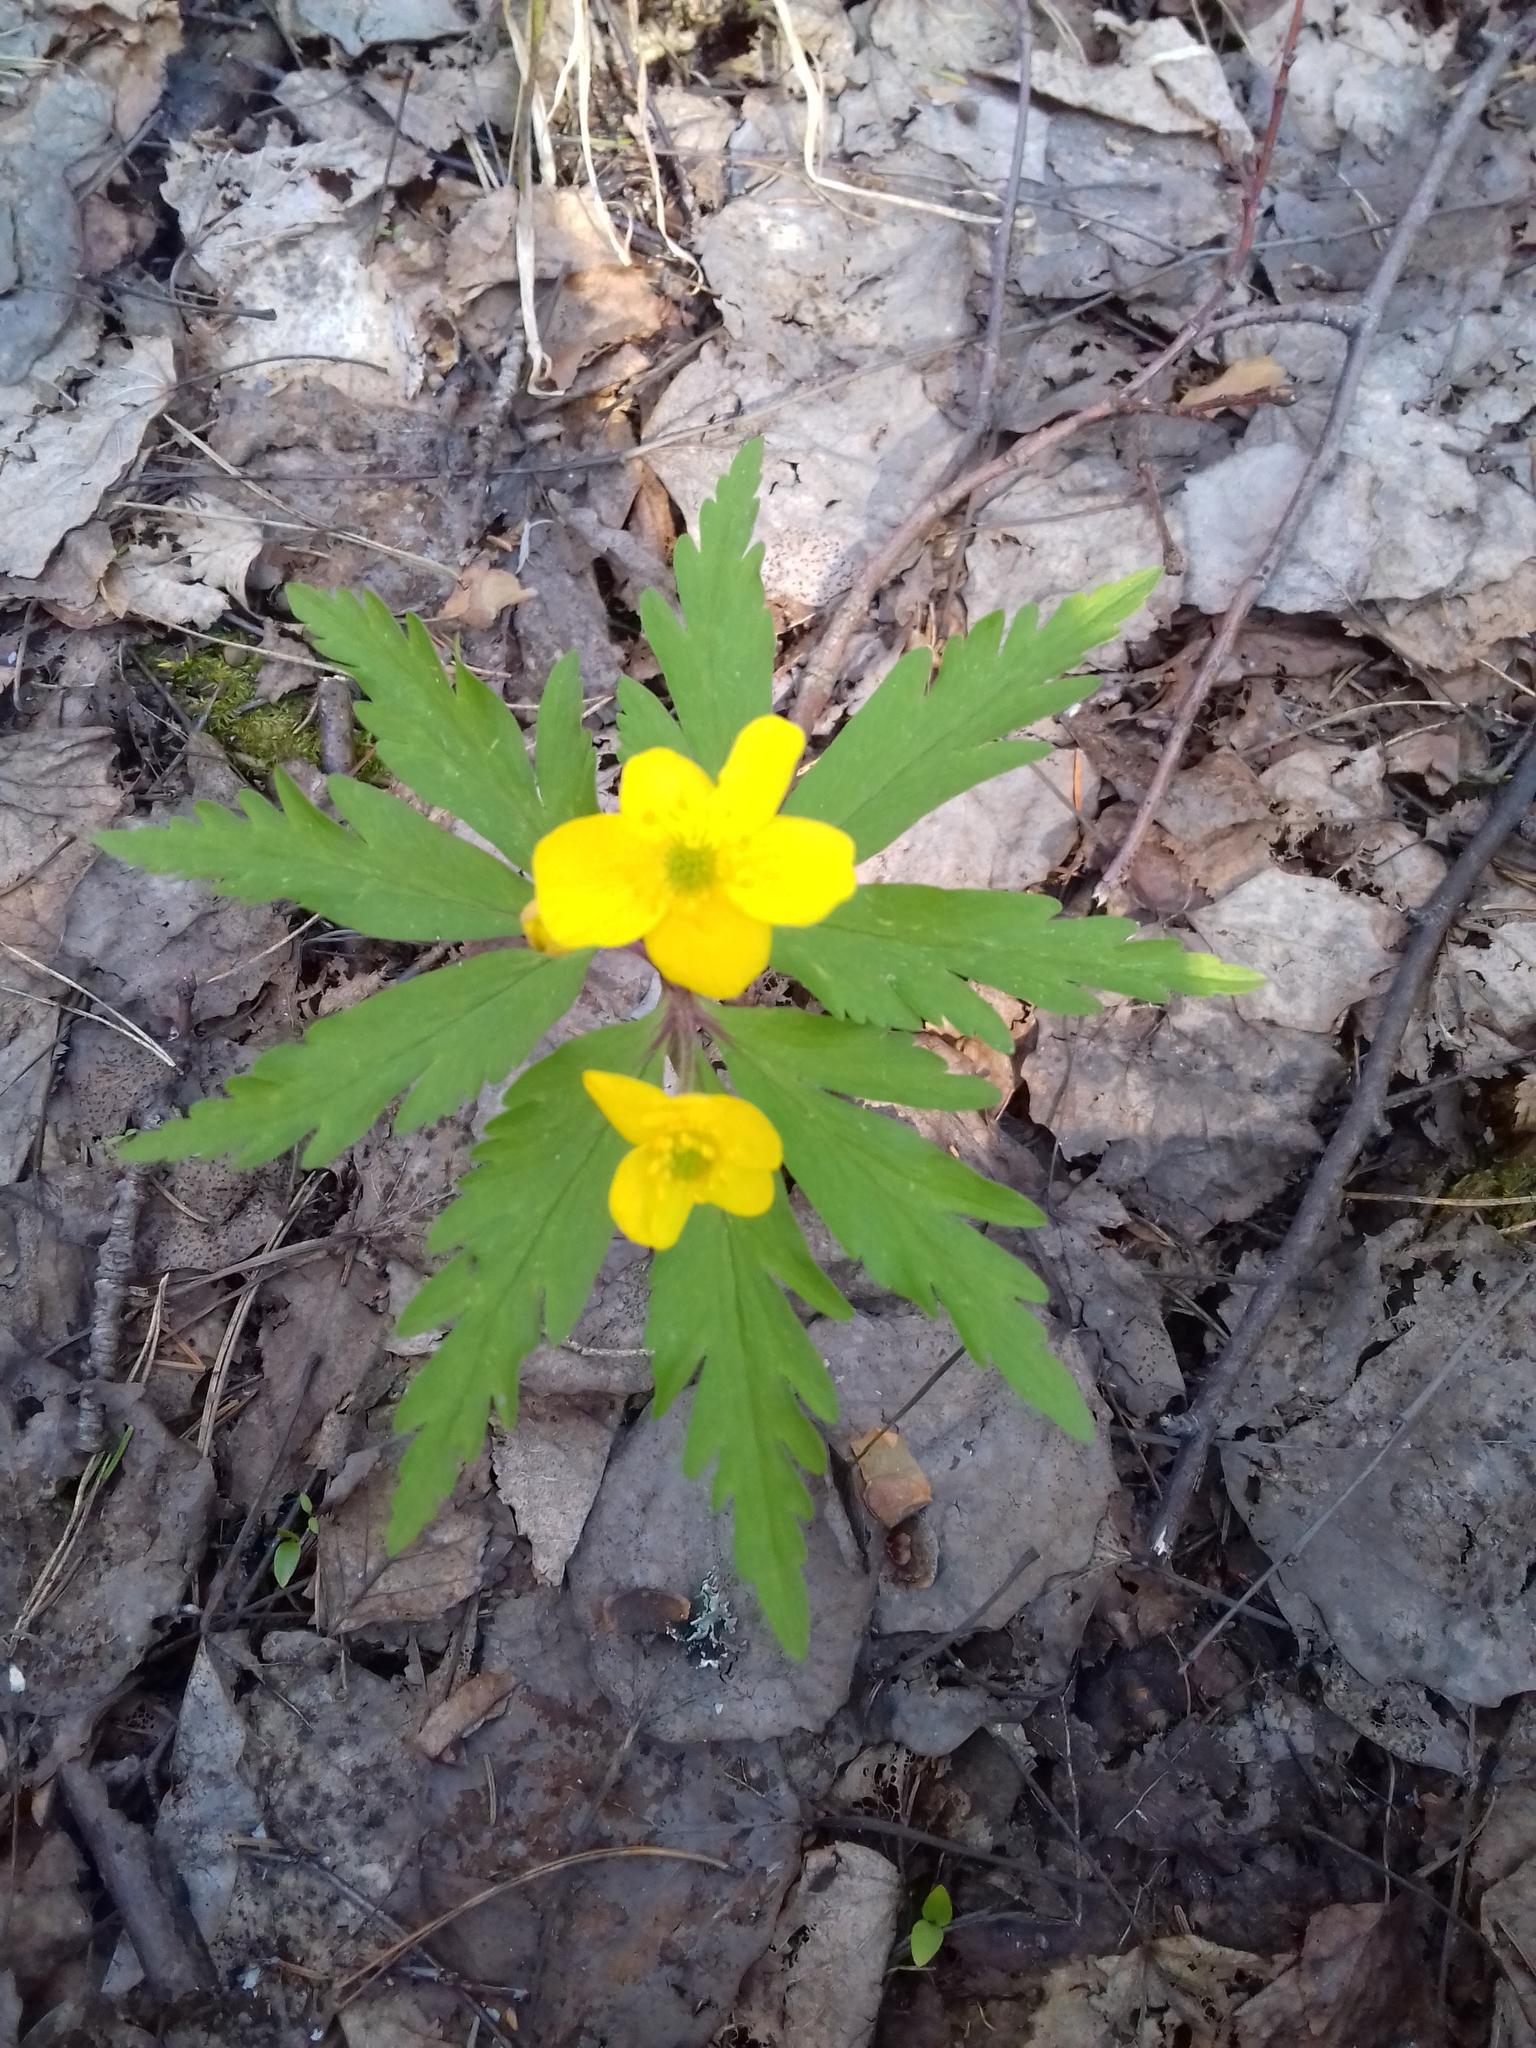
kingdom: Plantae
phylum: Tracheophyta
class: Magnoliopsida
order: Ranunculales
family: Ranunculaceae
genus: Anemone
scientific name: Anemone ranunculoides
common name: Yellow anemone
